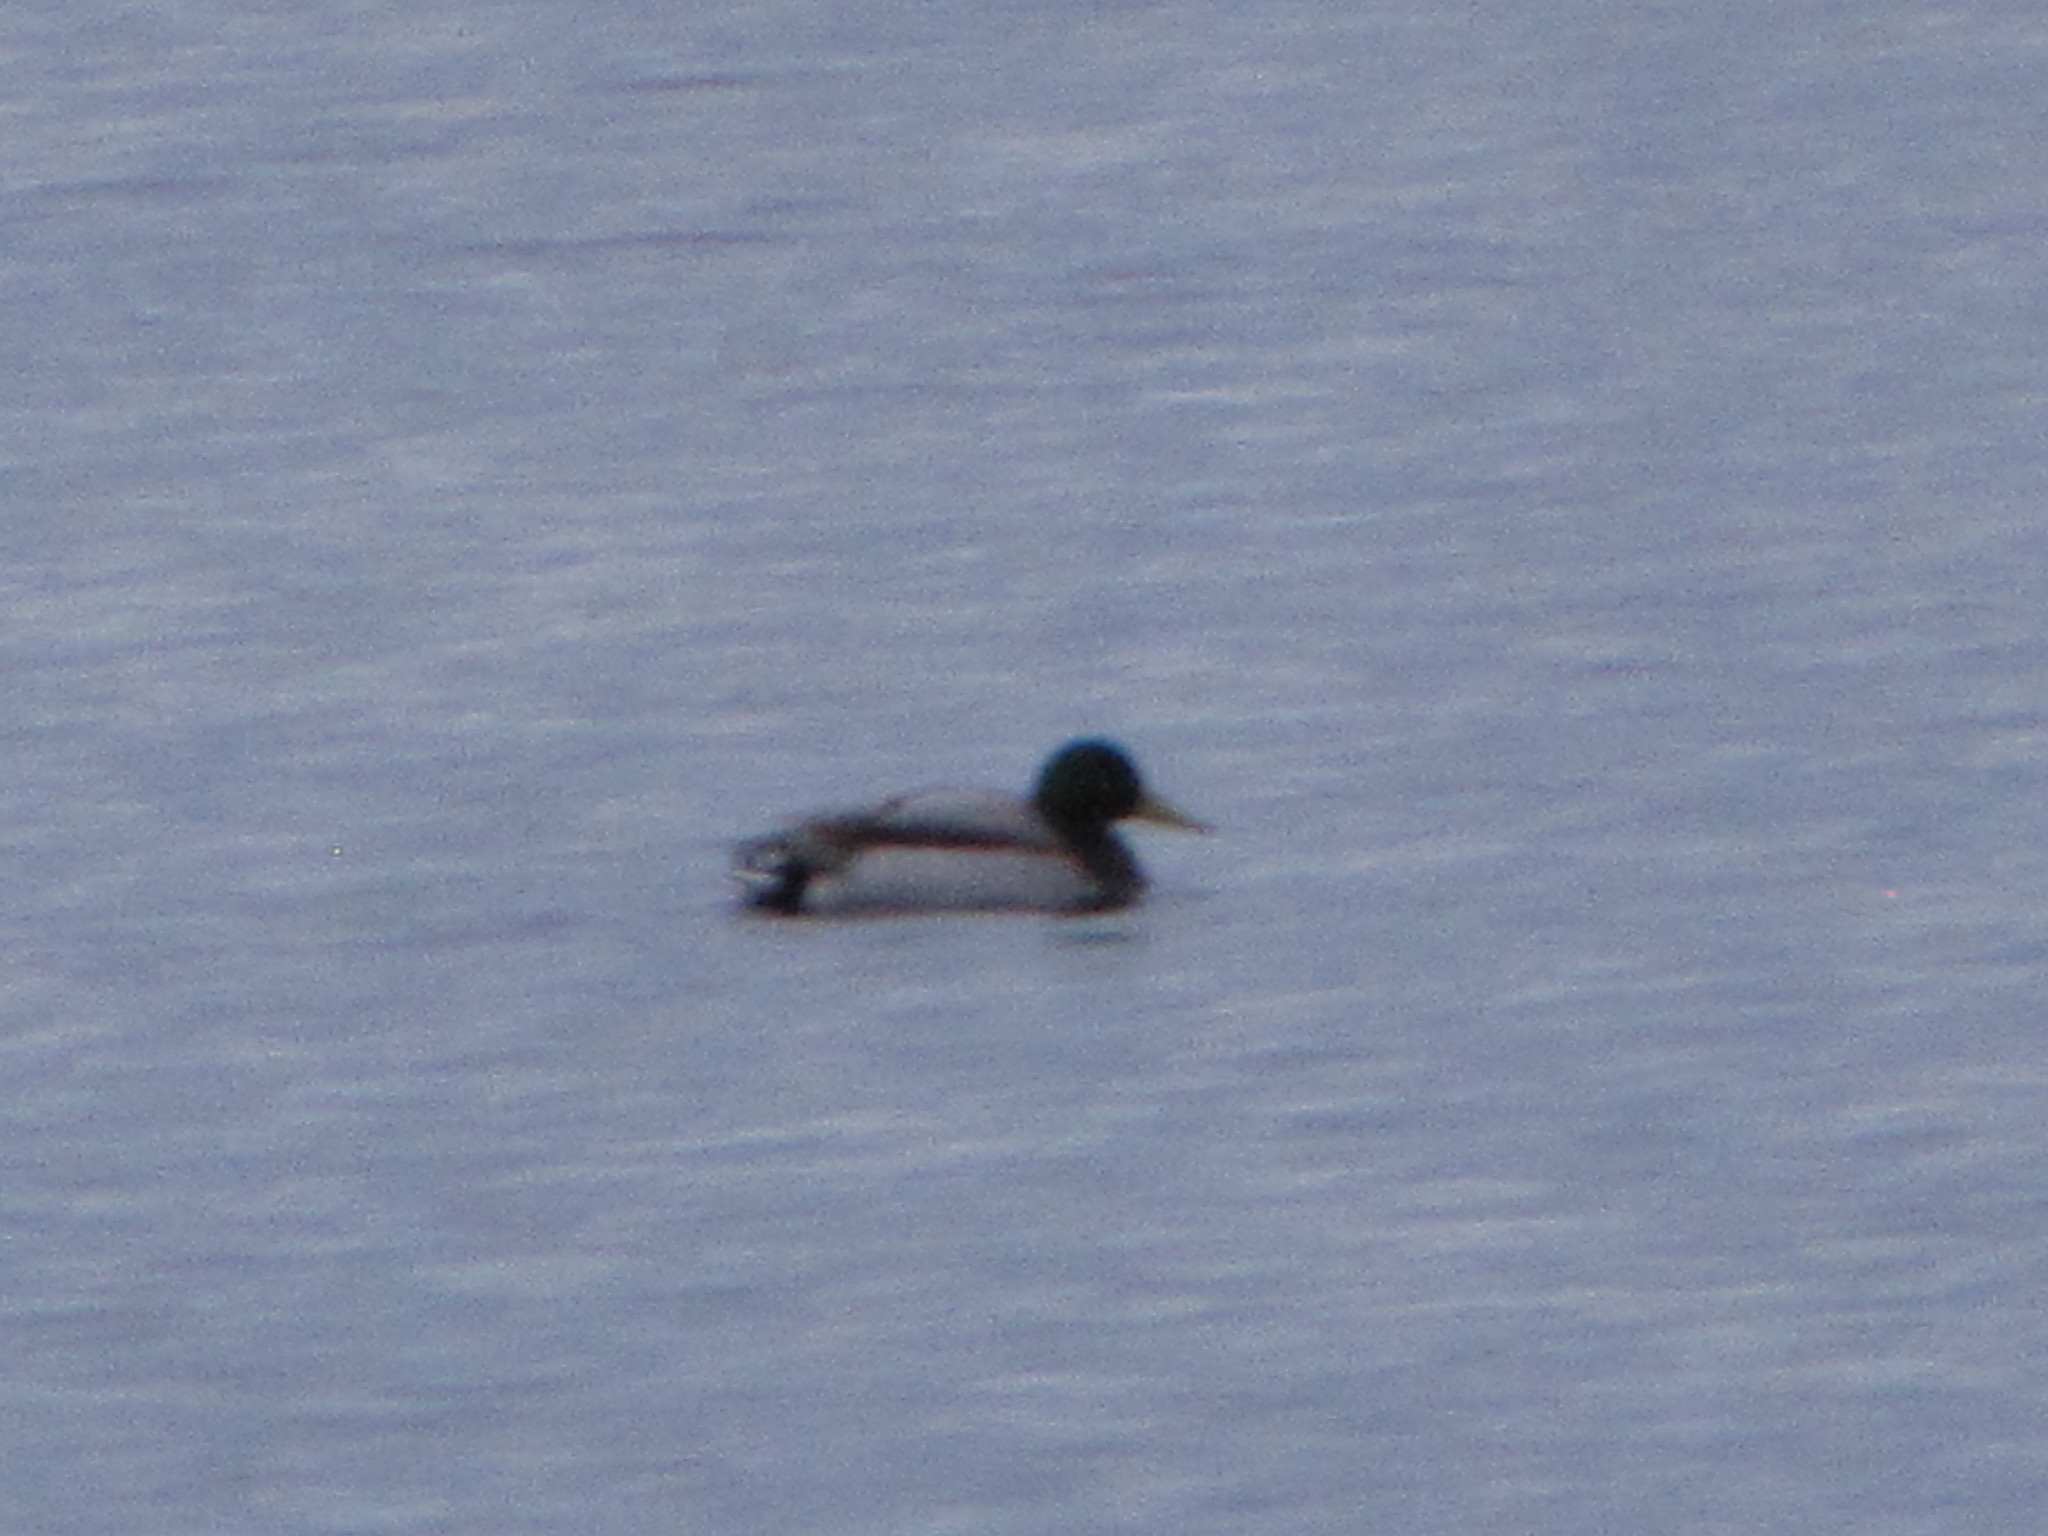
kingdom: Animalia
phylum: Chordata
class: Aves
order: Anseriformes
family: Anatidae
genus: Anas
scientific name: Anas platyrhynchos
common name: Mallard
